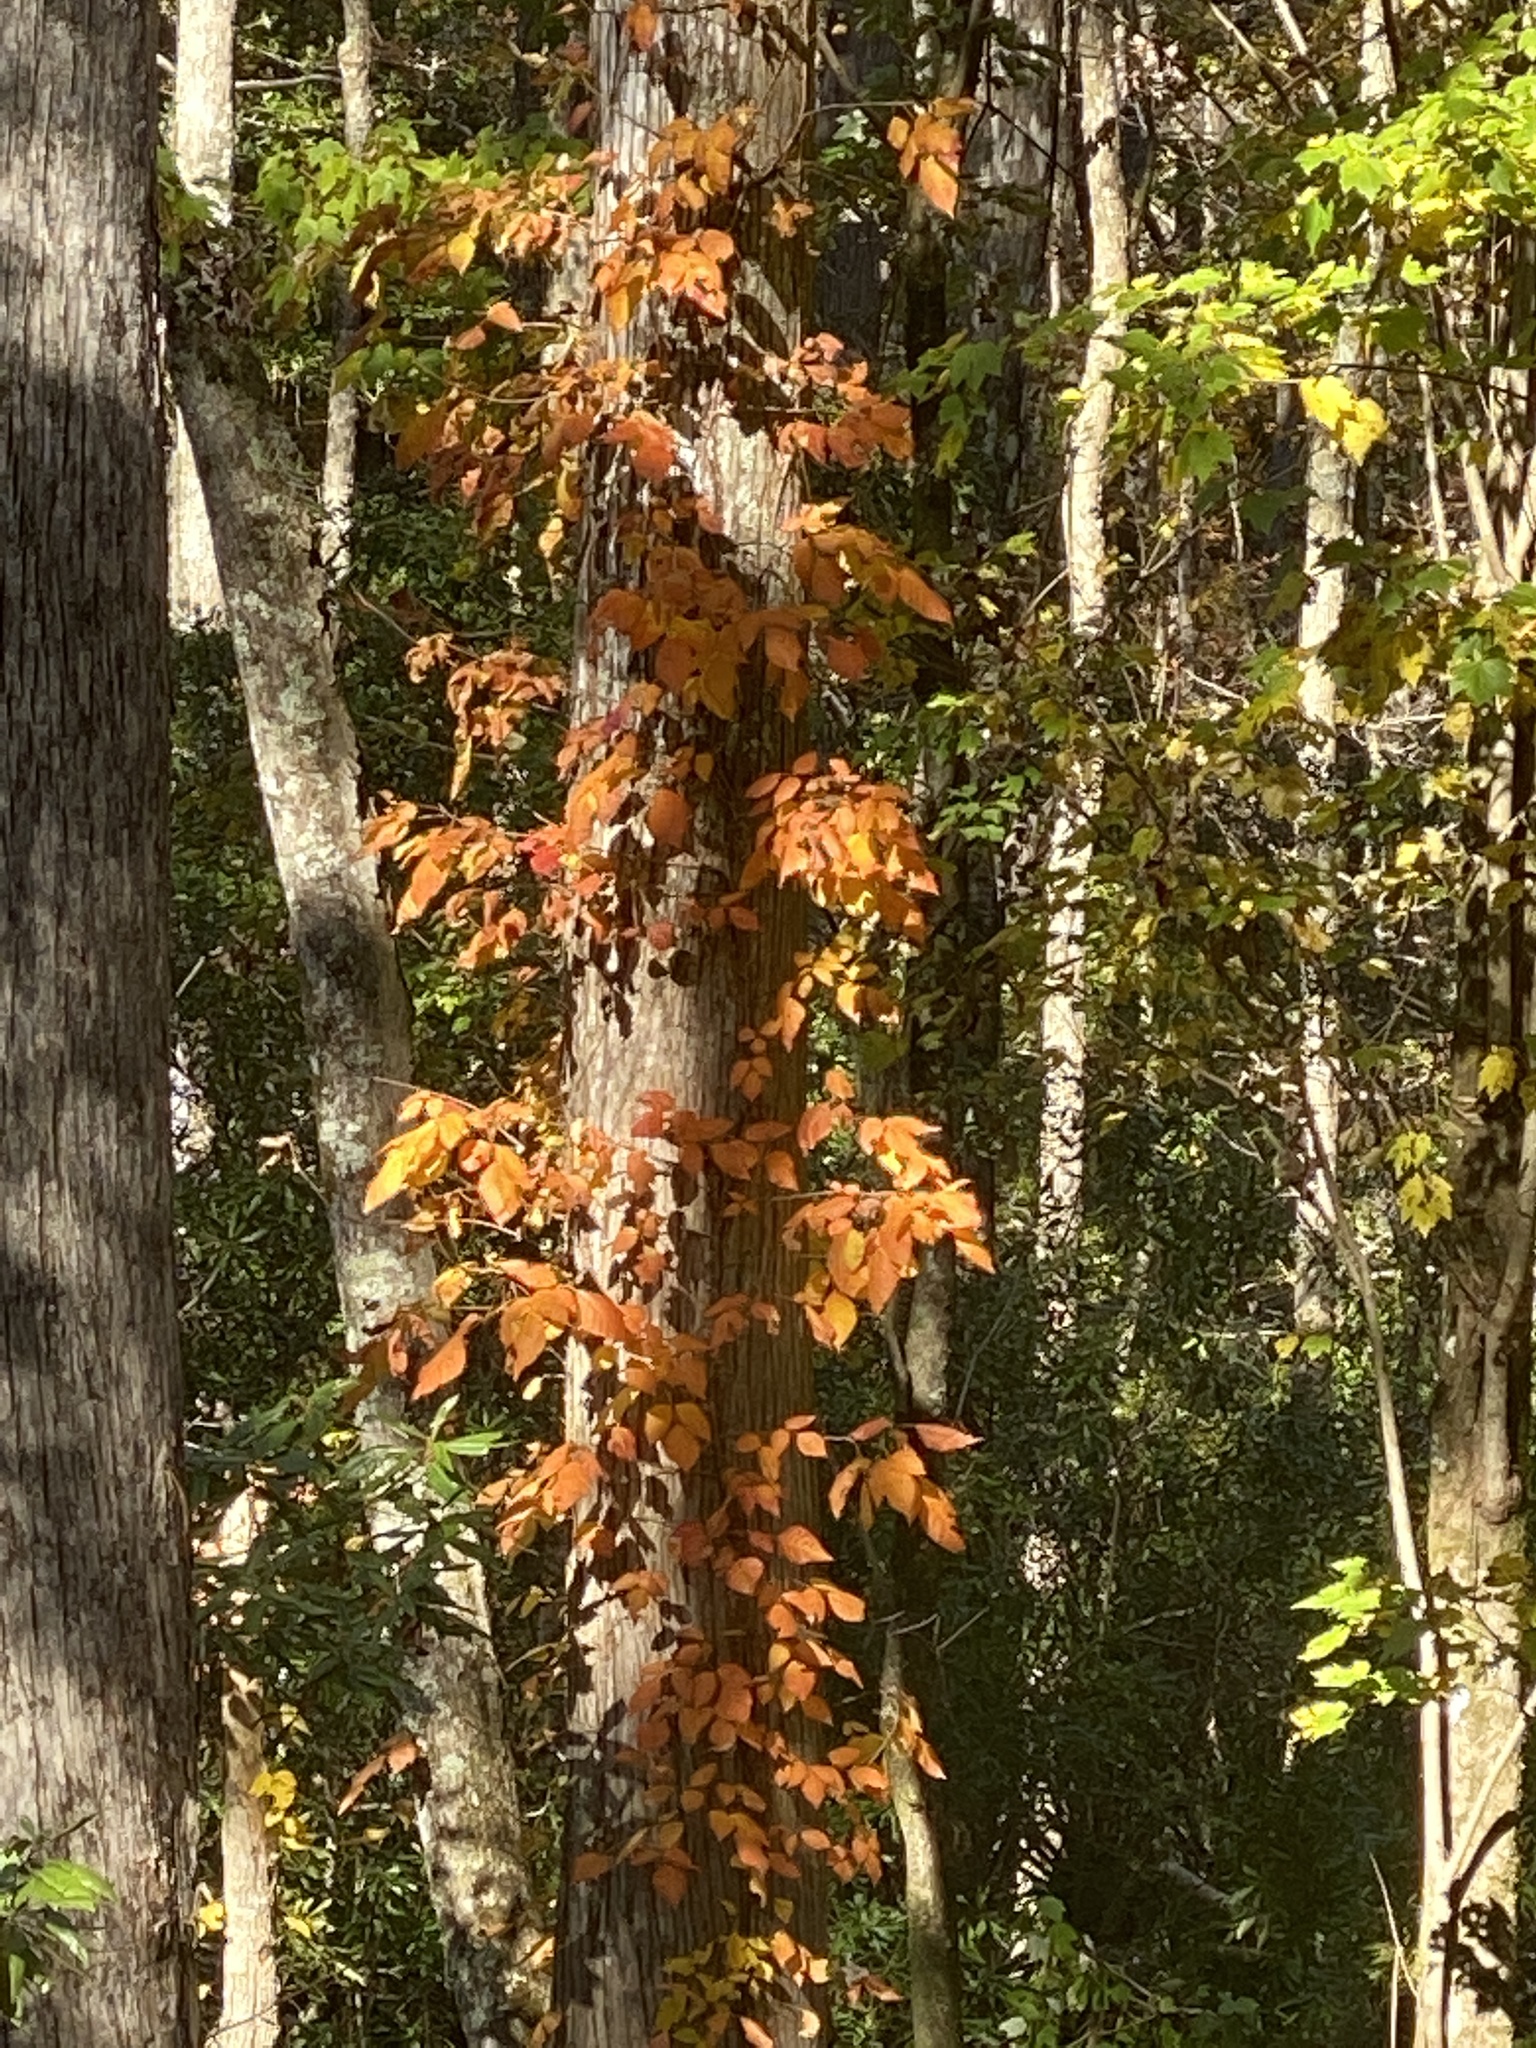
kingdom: Plantae
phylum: Tracheophyta
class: Magnoliopsida
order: Sapindales
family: Anacardiaceae
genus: Toxicodendron
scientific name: Toxicodendron radicans
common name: Poison ivy
